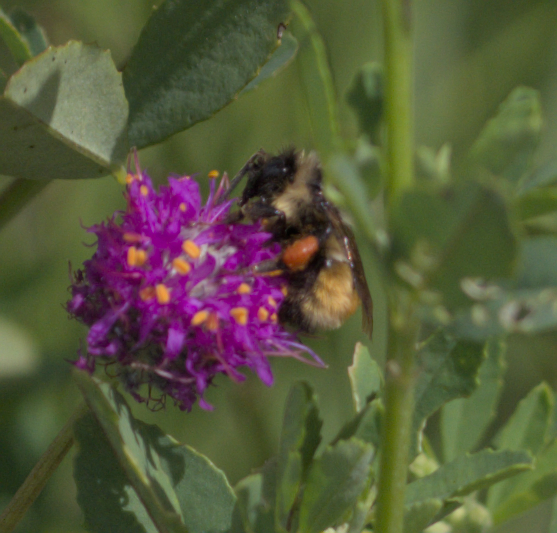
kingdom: Animalia
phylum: Arthropoda
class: Insecta
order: Hymenoptera
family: Apidae
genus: Bombus
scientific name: Bombus ternarius
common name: Tri-colored bumble bee
